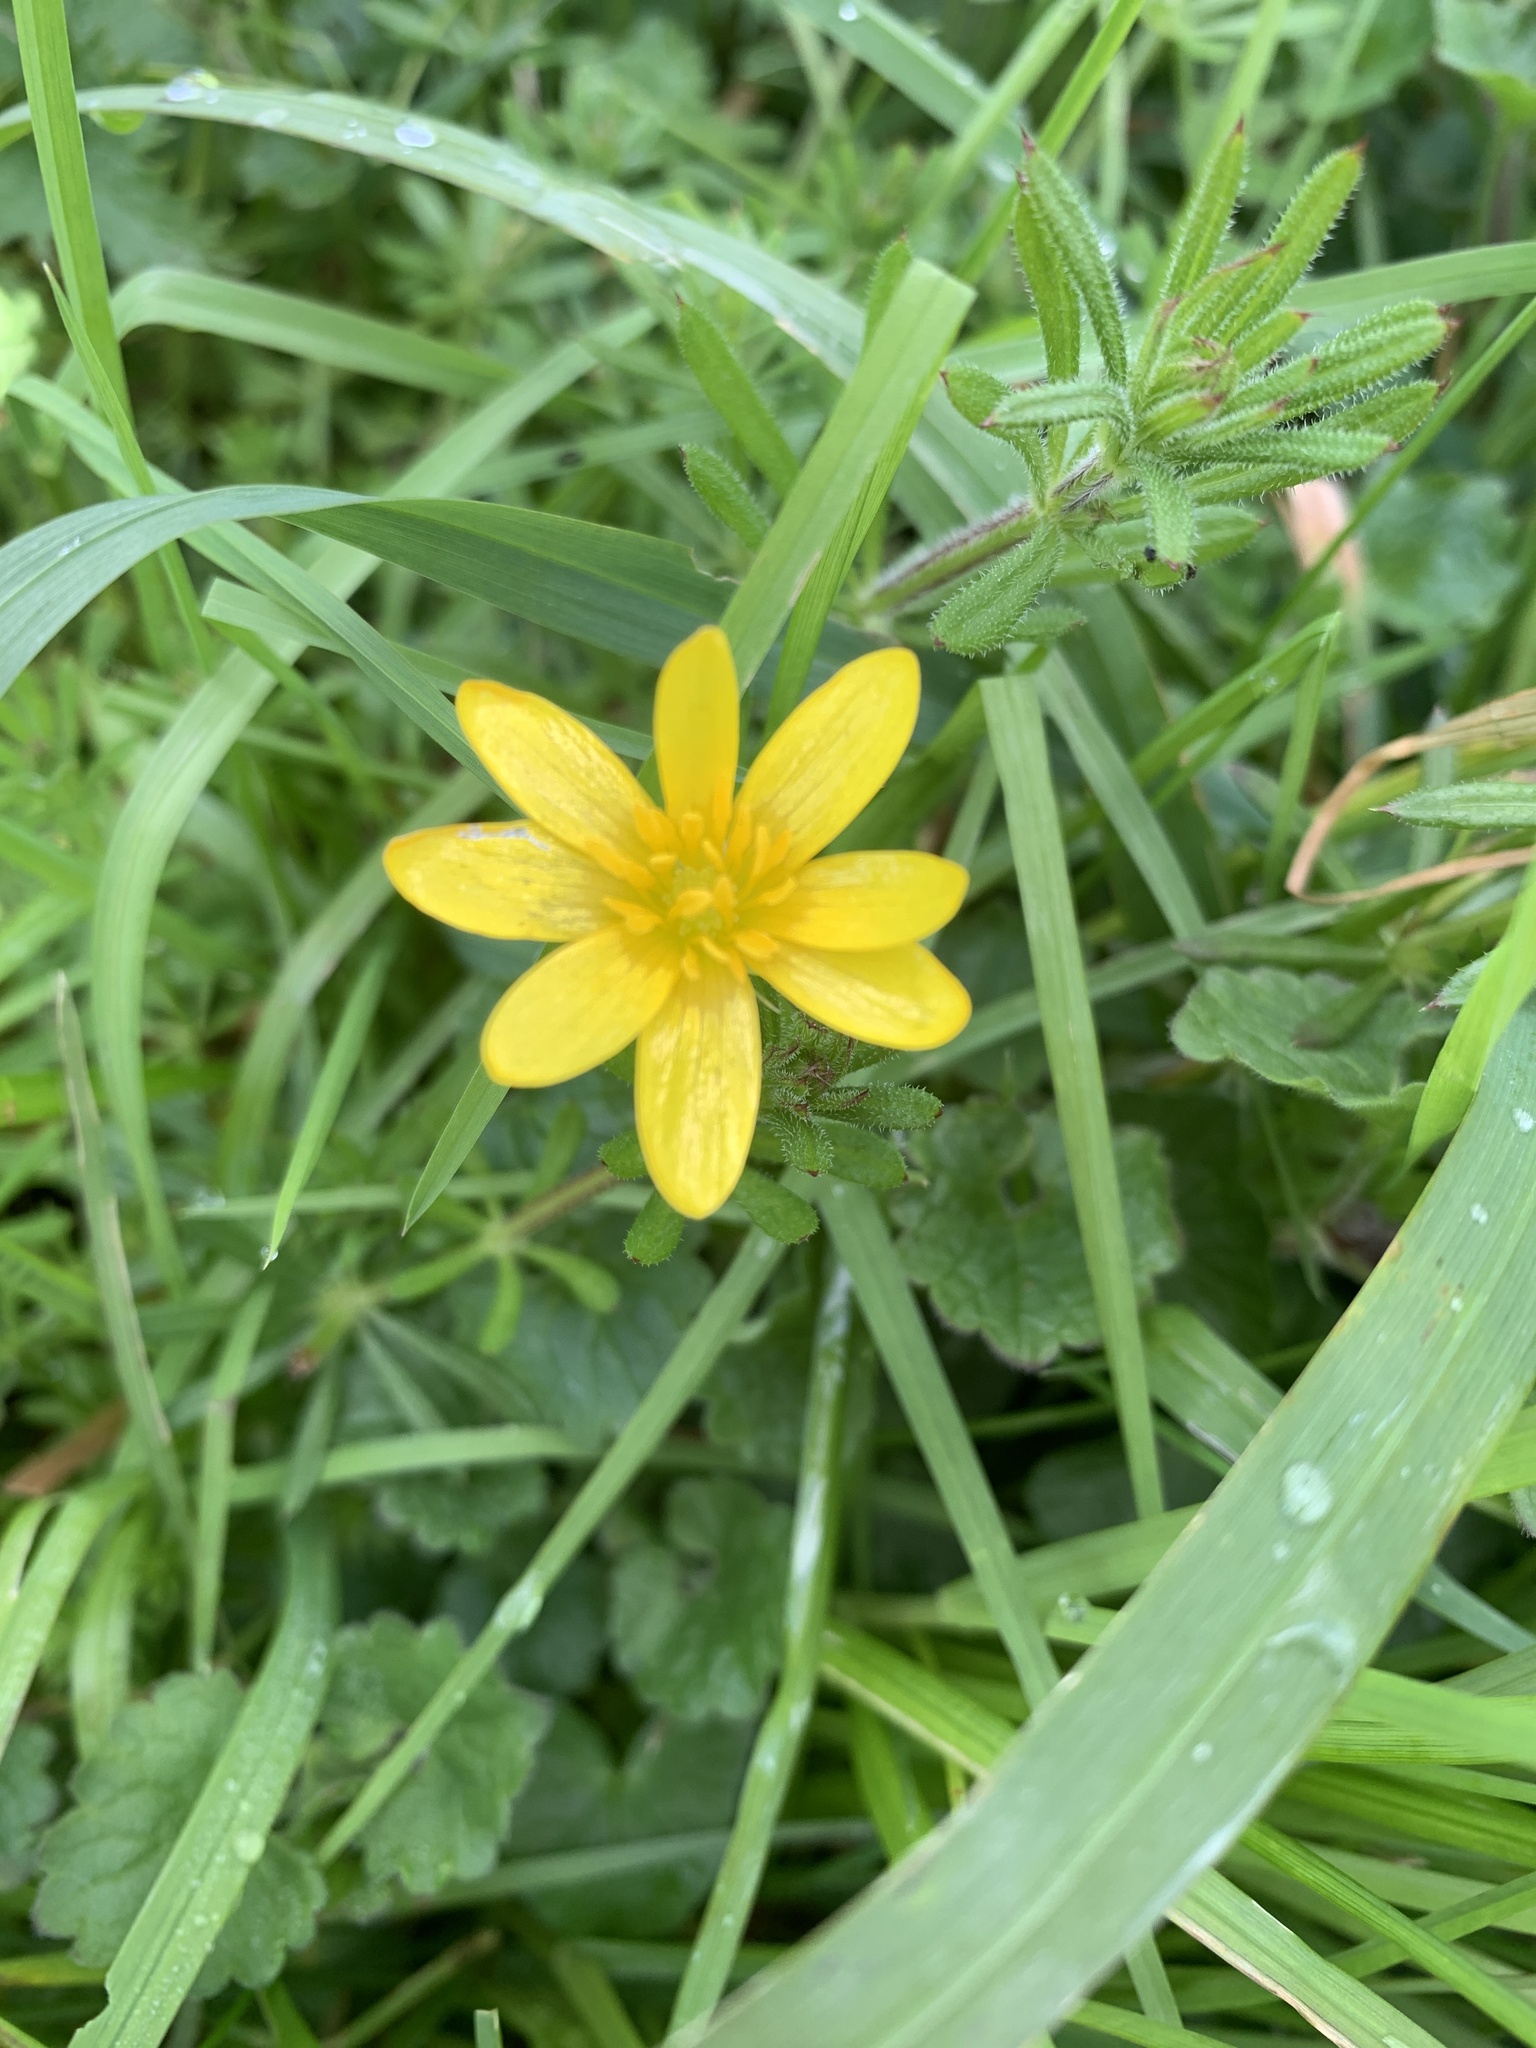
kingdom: Plantae
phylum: Tracheophyta
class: Magnoliopsida
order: Ranunculales
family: Ranunculaceae
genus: Ficaria
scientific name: Ficaria verna
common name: Lesser celandine
